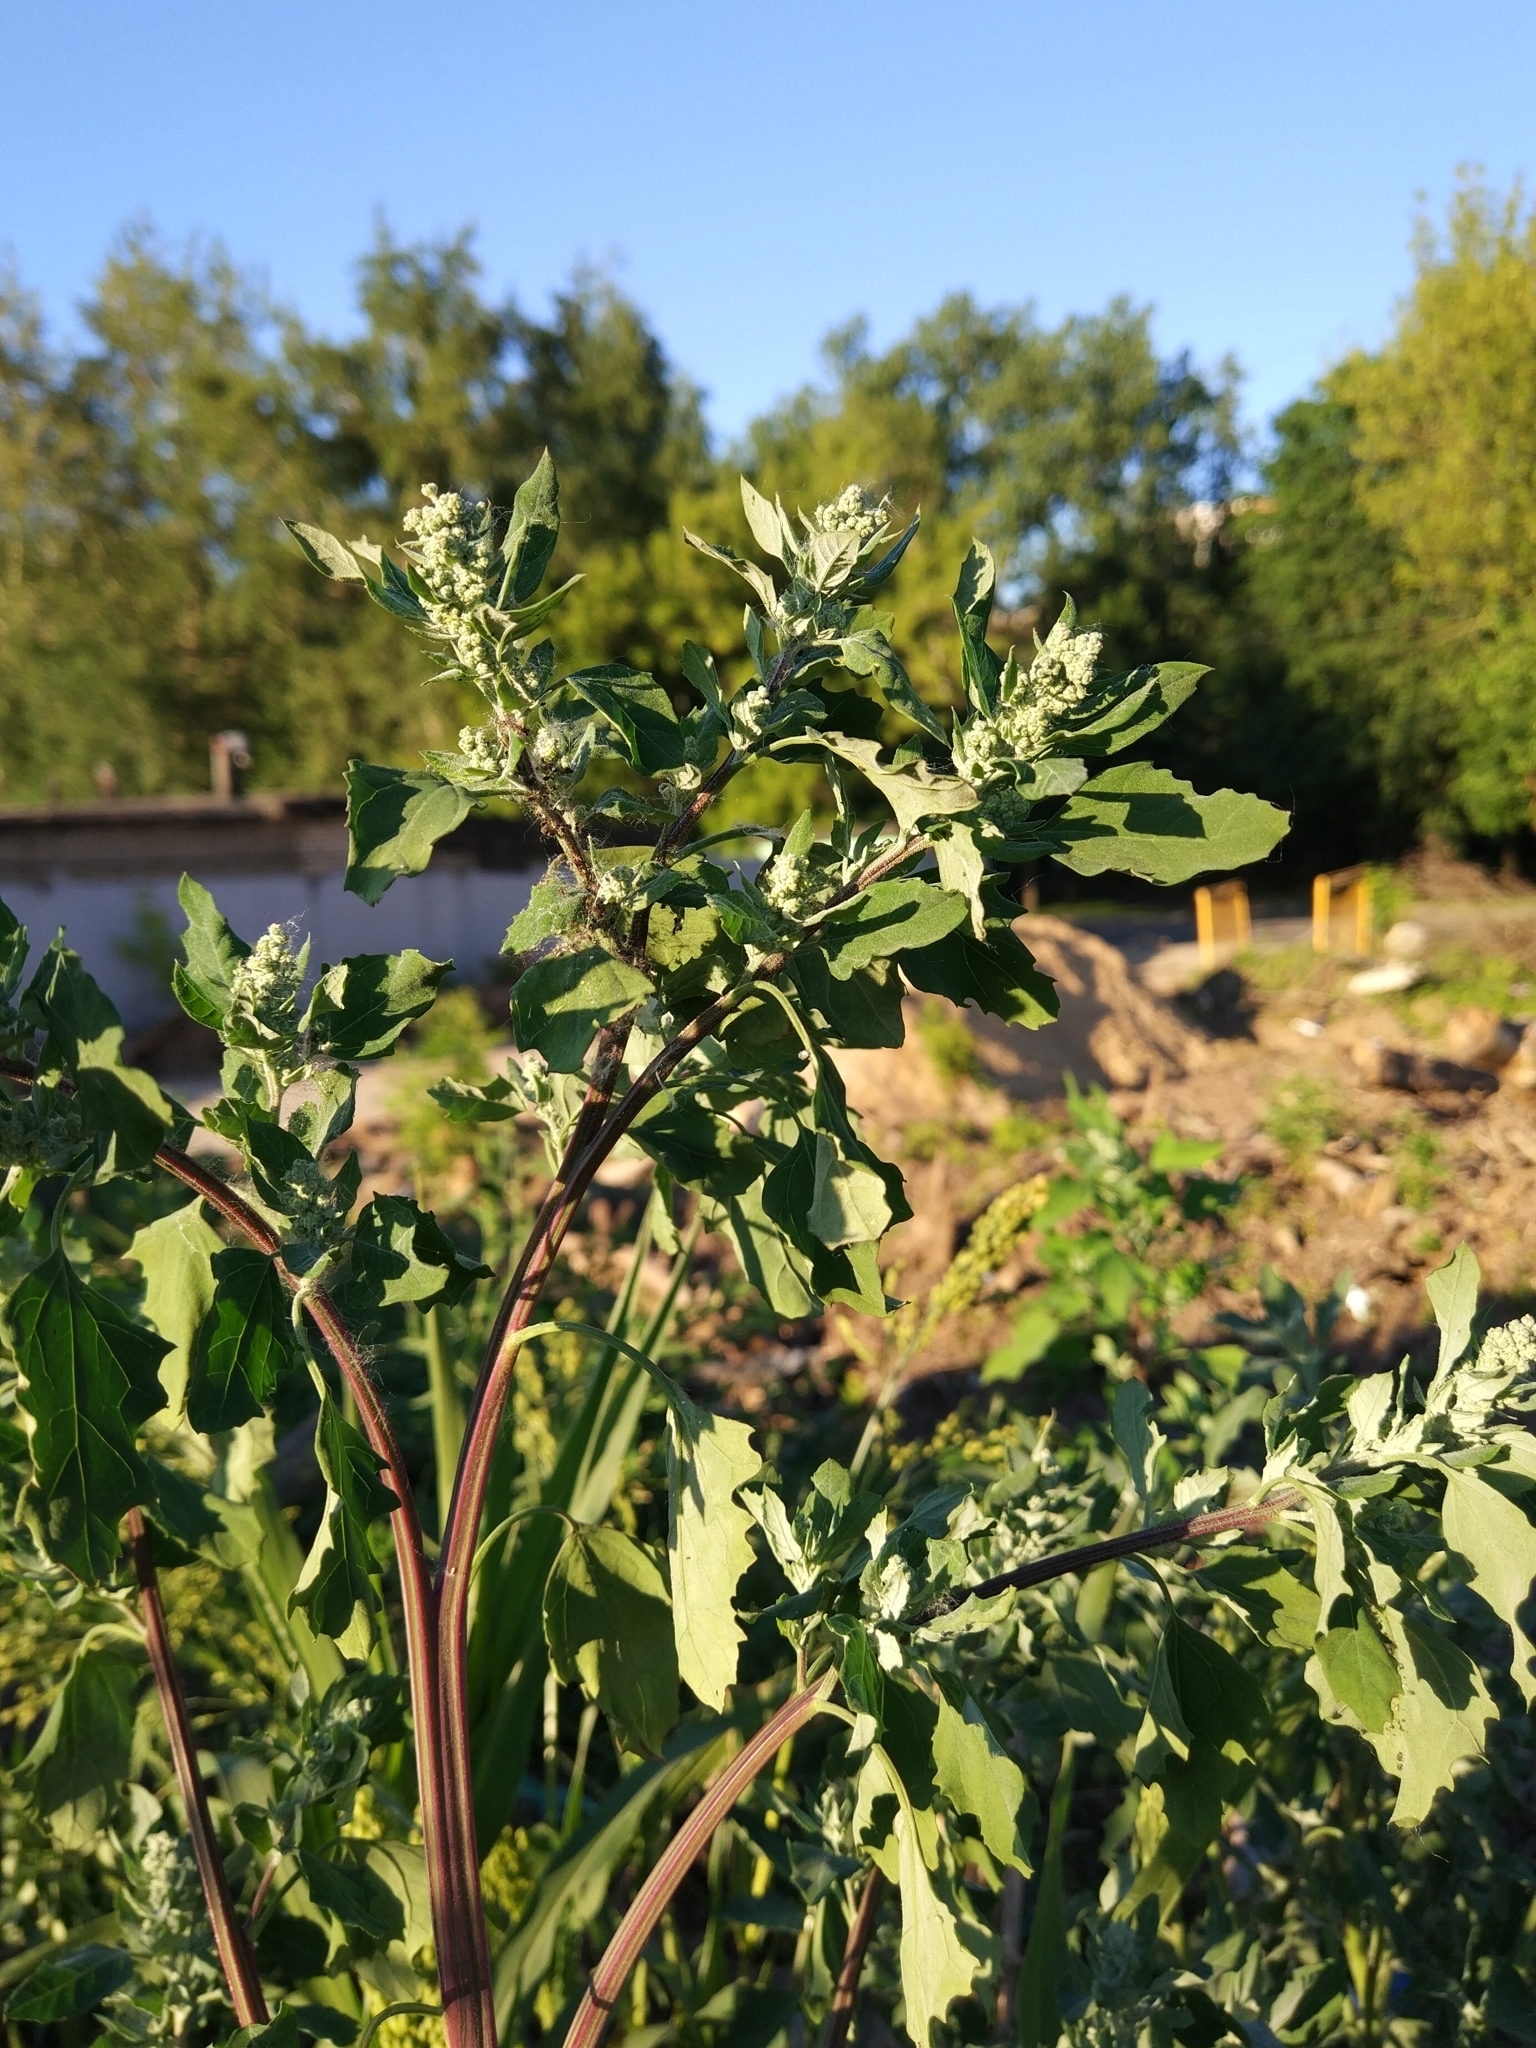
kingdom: Plantae
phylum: Tracheophyta
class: Magnoliopsida
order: Caryophyllales
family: Amaranthaceae
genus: Chenopodium
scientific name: Chenopodium album
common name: Fat-hen
